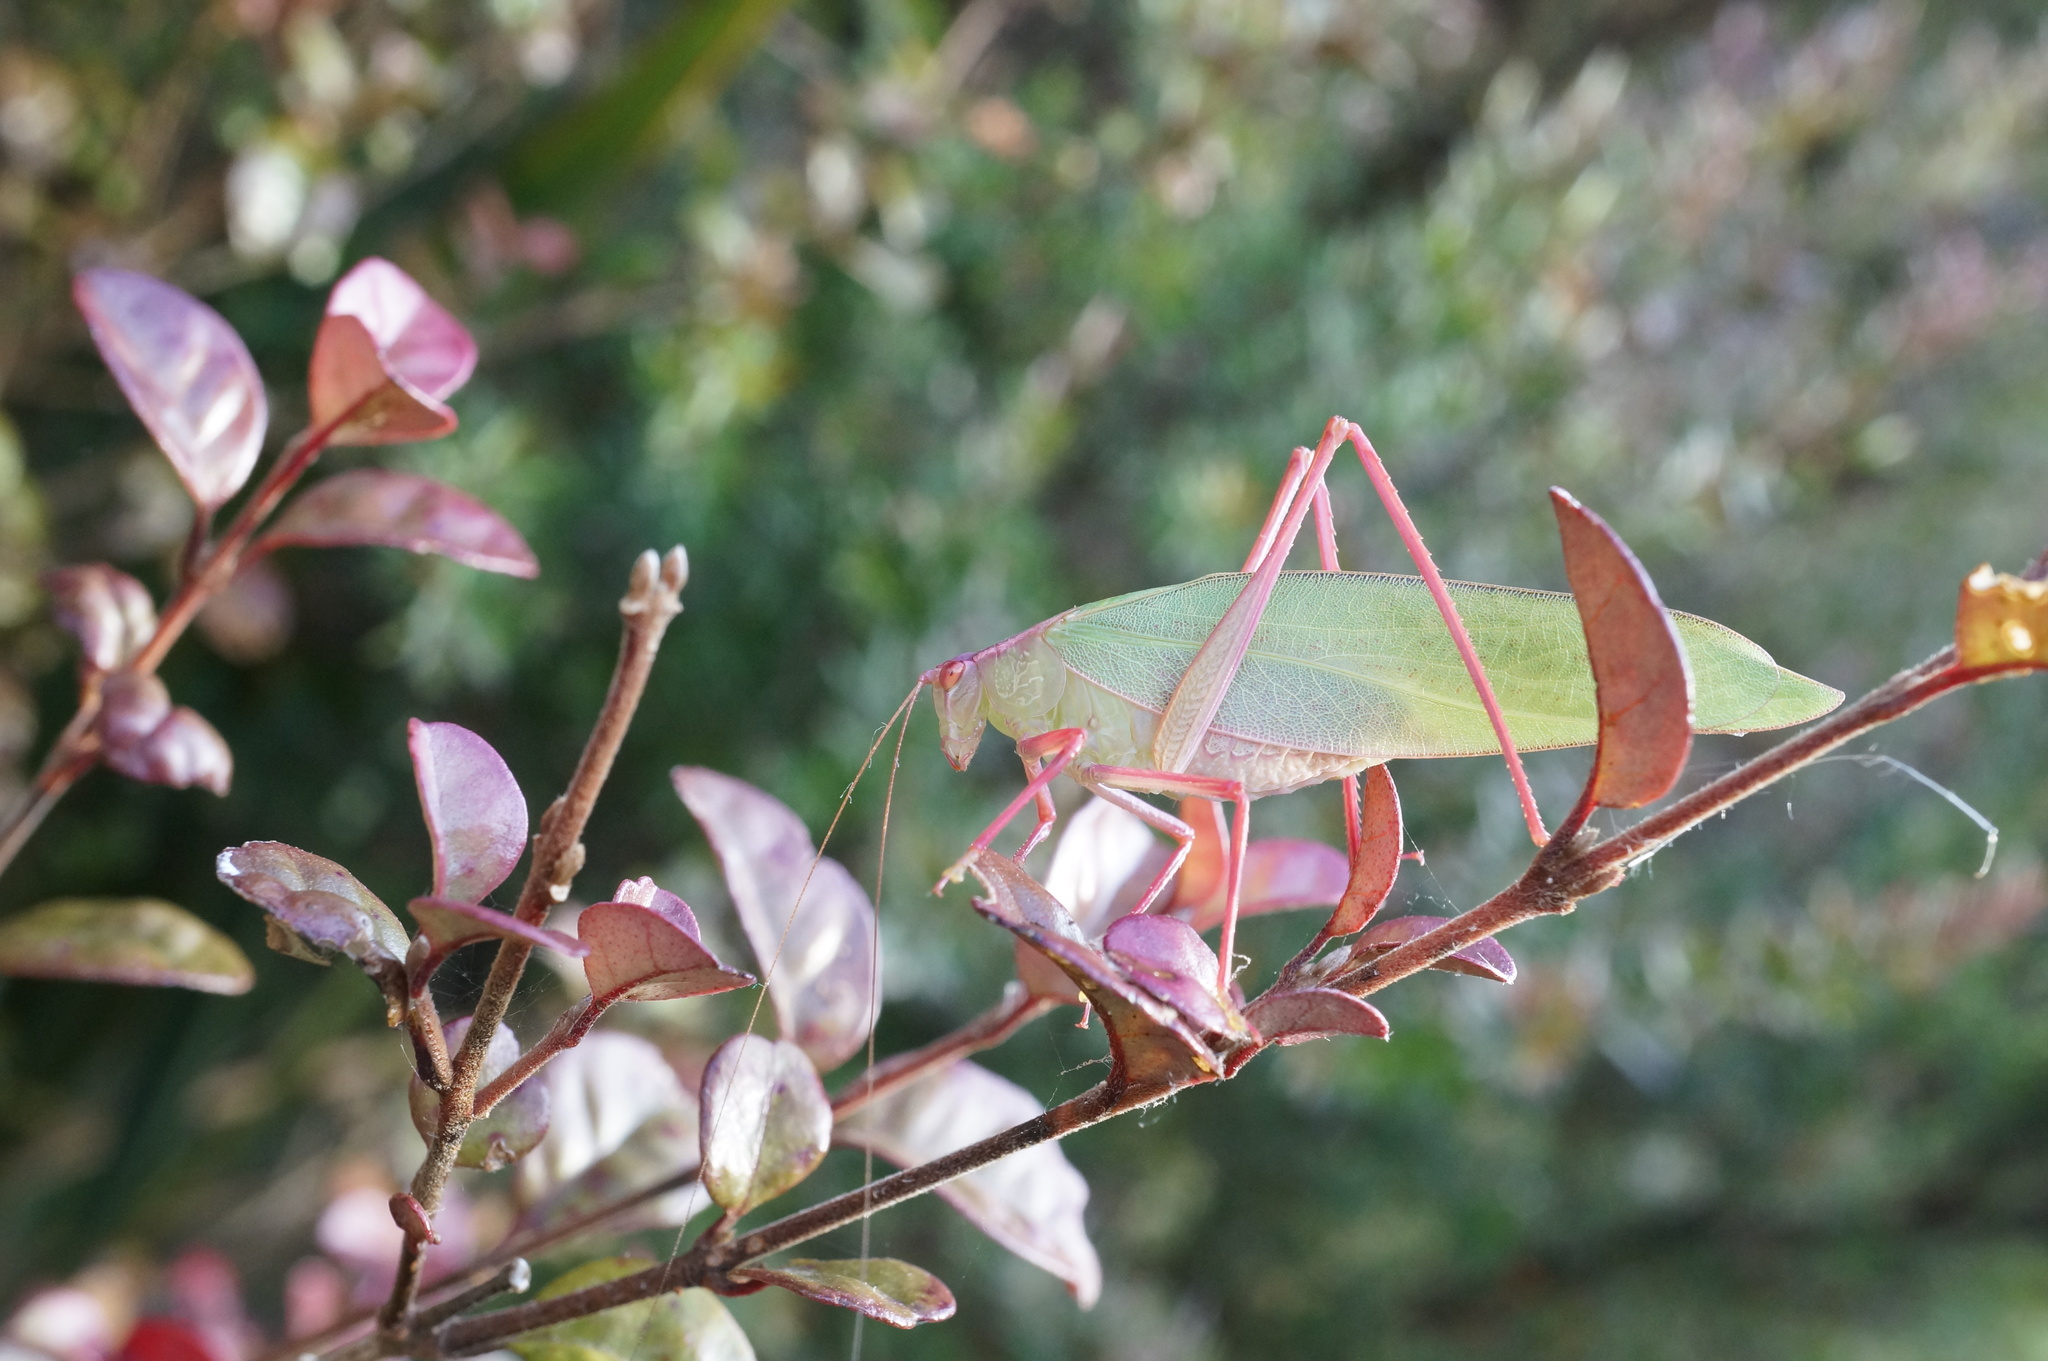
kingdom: Animalia
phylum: Arthropoda
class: Insecta
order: Orthoptera
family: Tettigoniidae
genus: Caedicia
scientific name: Caedicia simplex
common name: Common garden katydid
